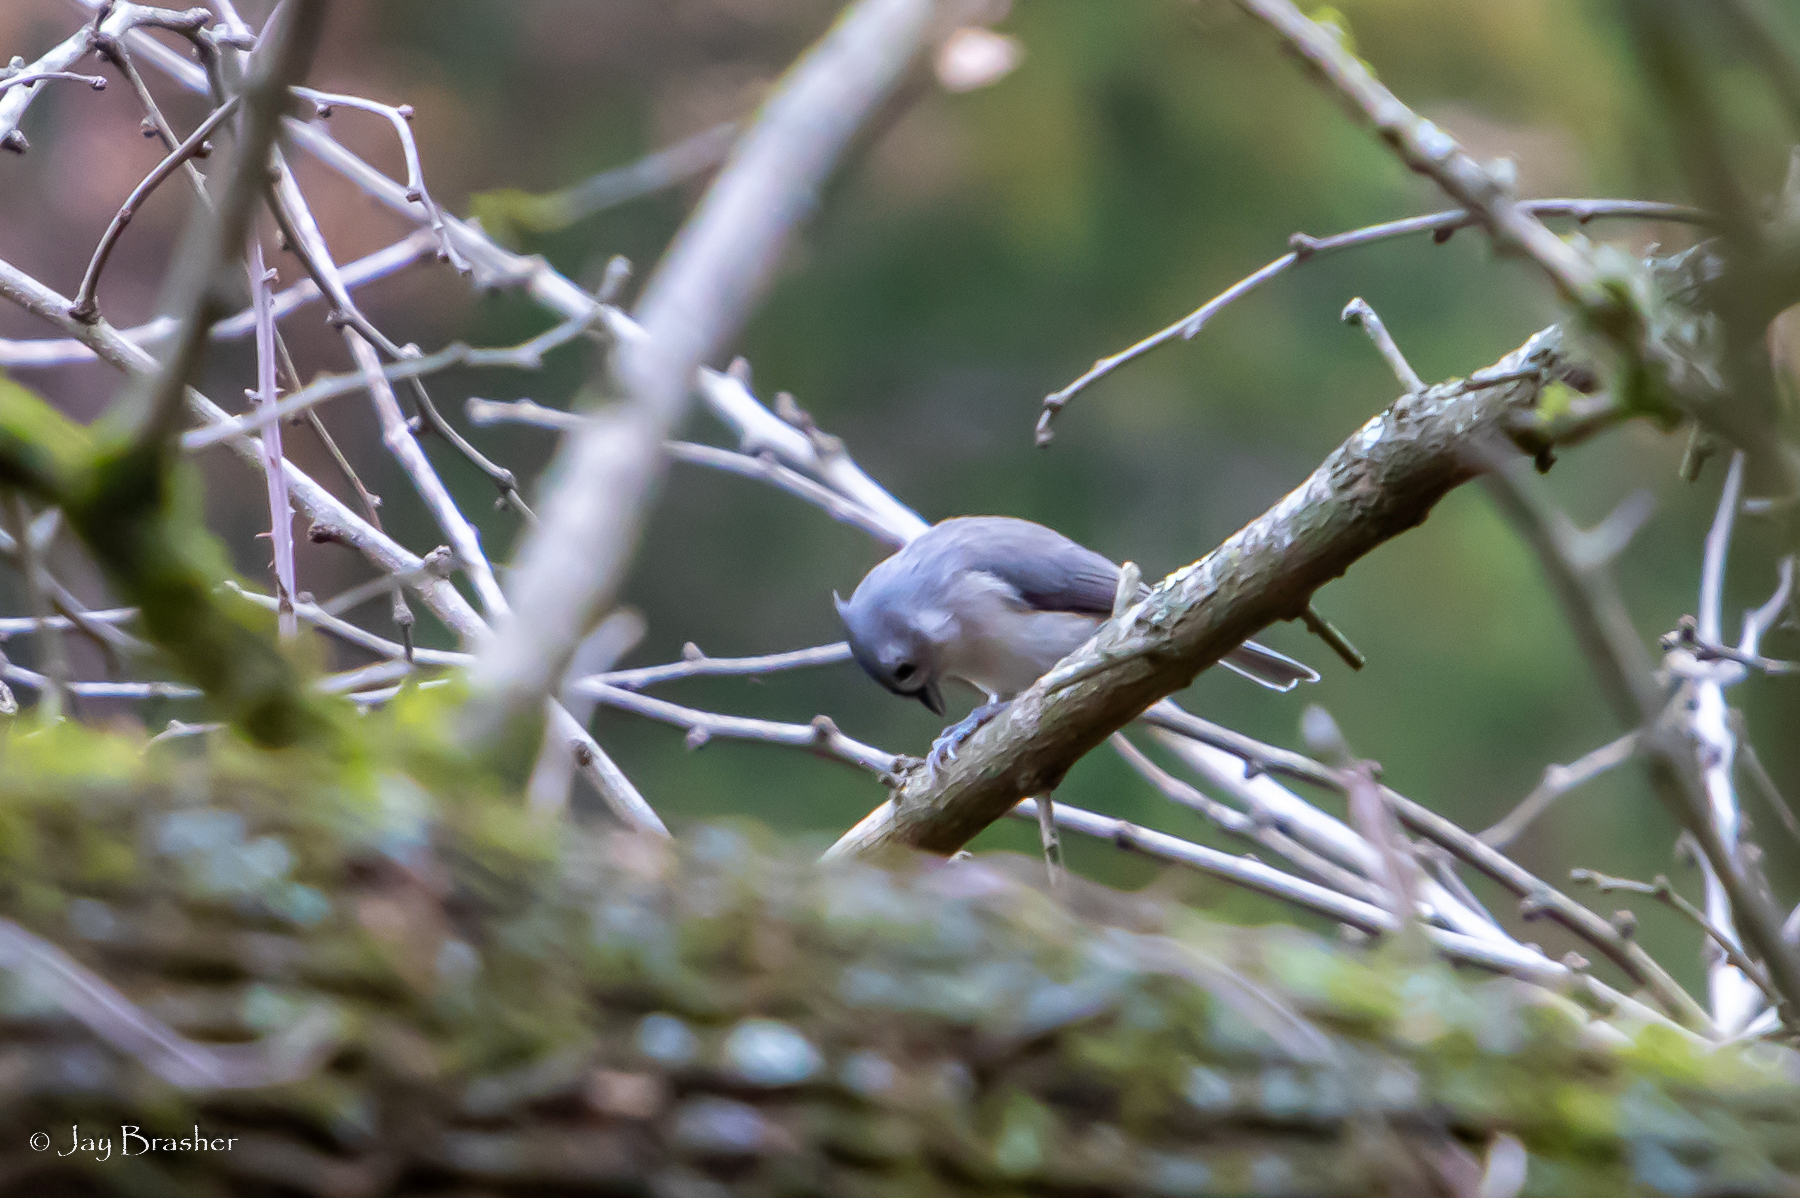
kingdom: Animalia
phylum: Chordata
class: Aves
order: Passeriformes
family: Paridae
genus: Baeolophus
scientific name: Baeolophus bicolor
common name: Tufted titmouse
